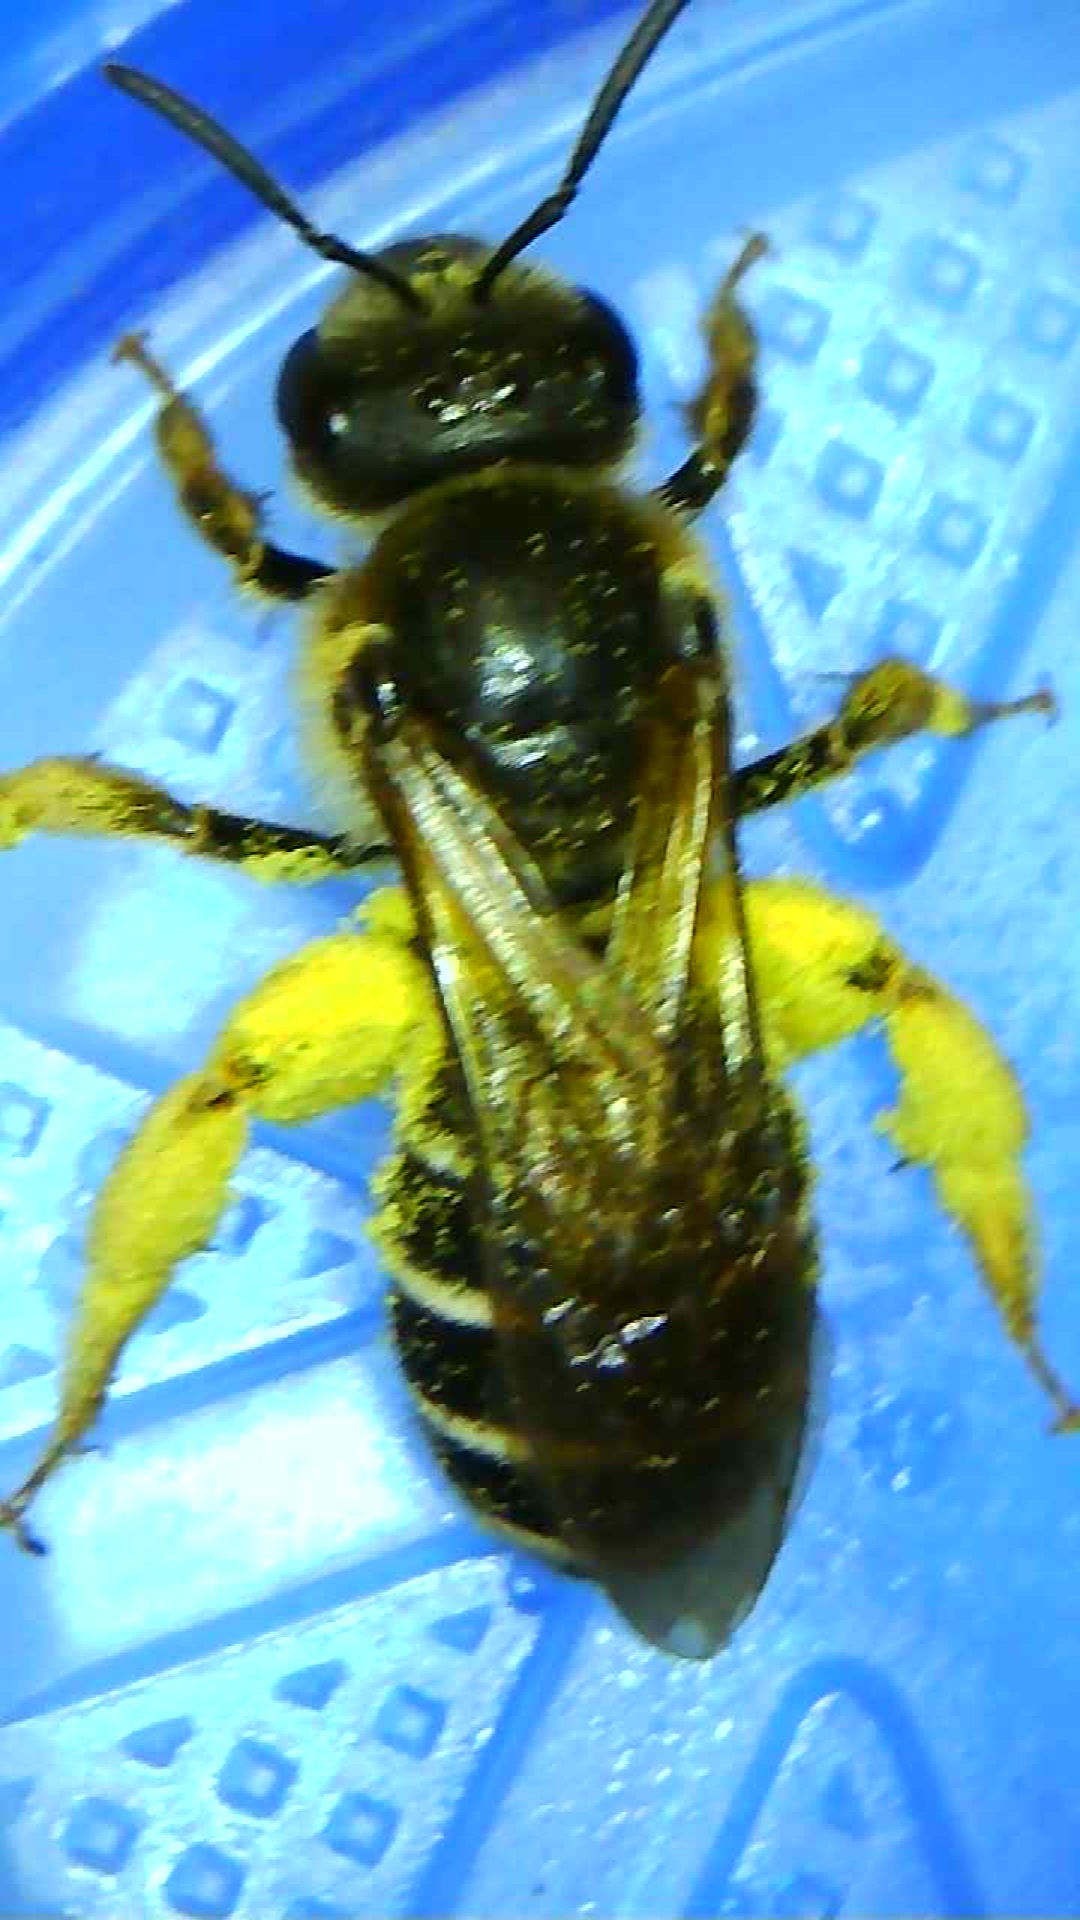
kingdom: Animalia
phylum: Arthropoda
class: Insecta
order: Hymenoptera
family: Halictidae
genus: Halictus
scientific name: Halictus rubicundus
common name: Orange-legged furrow bee
